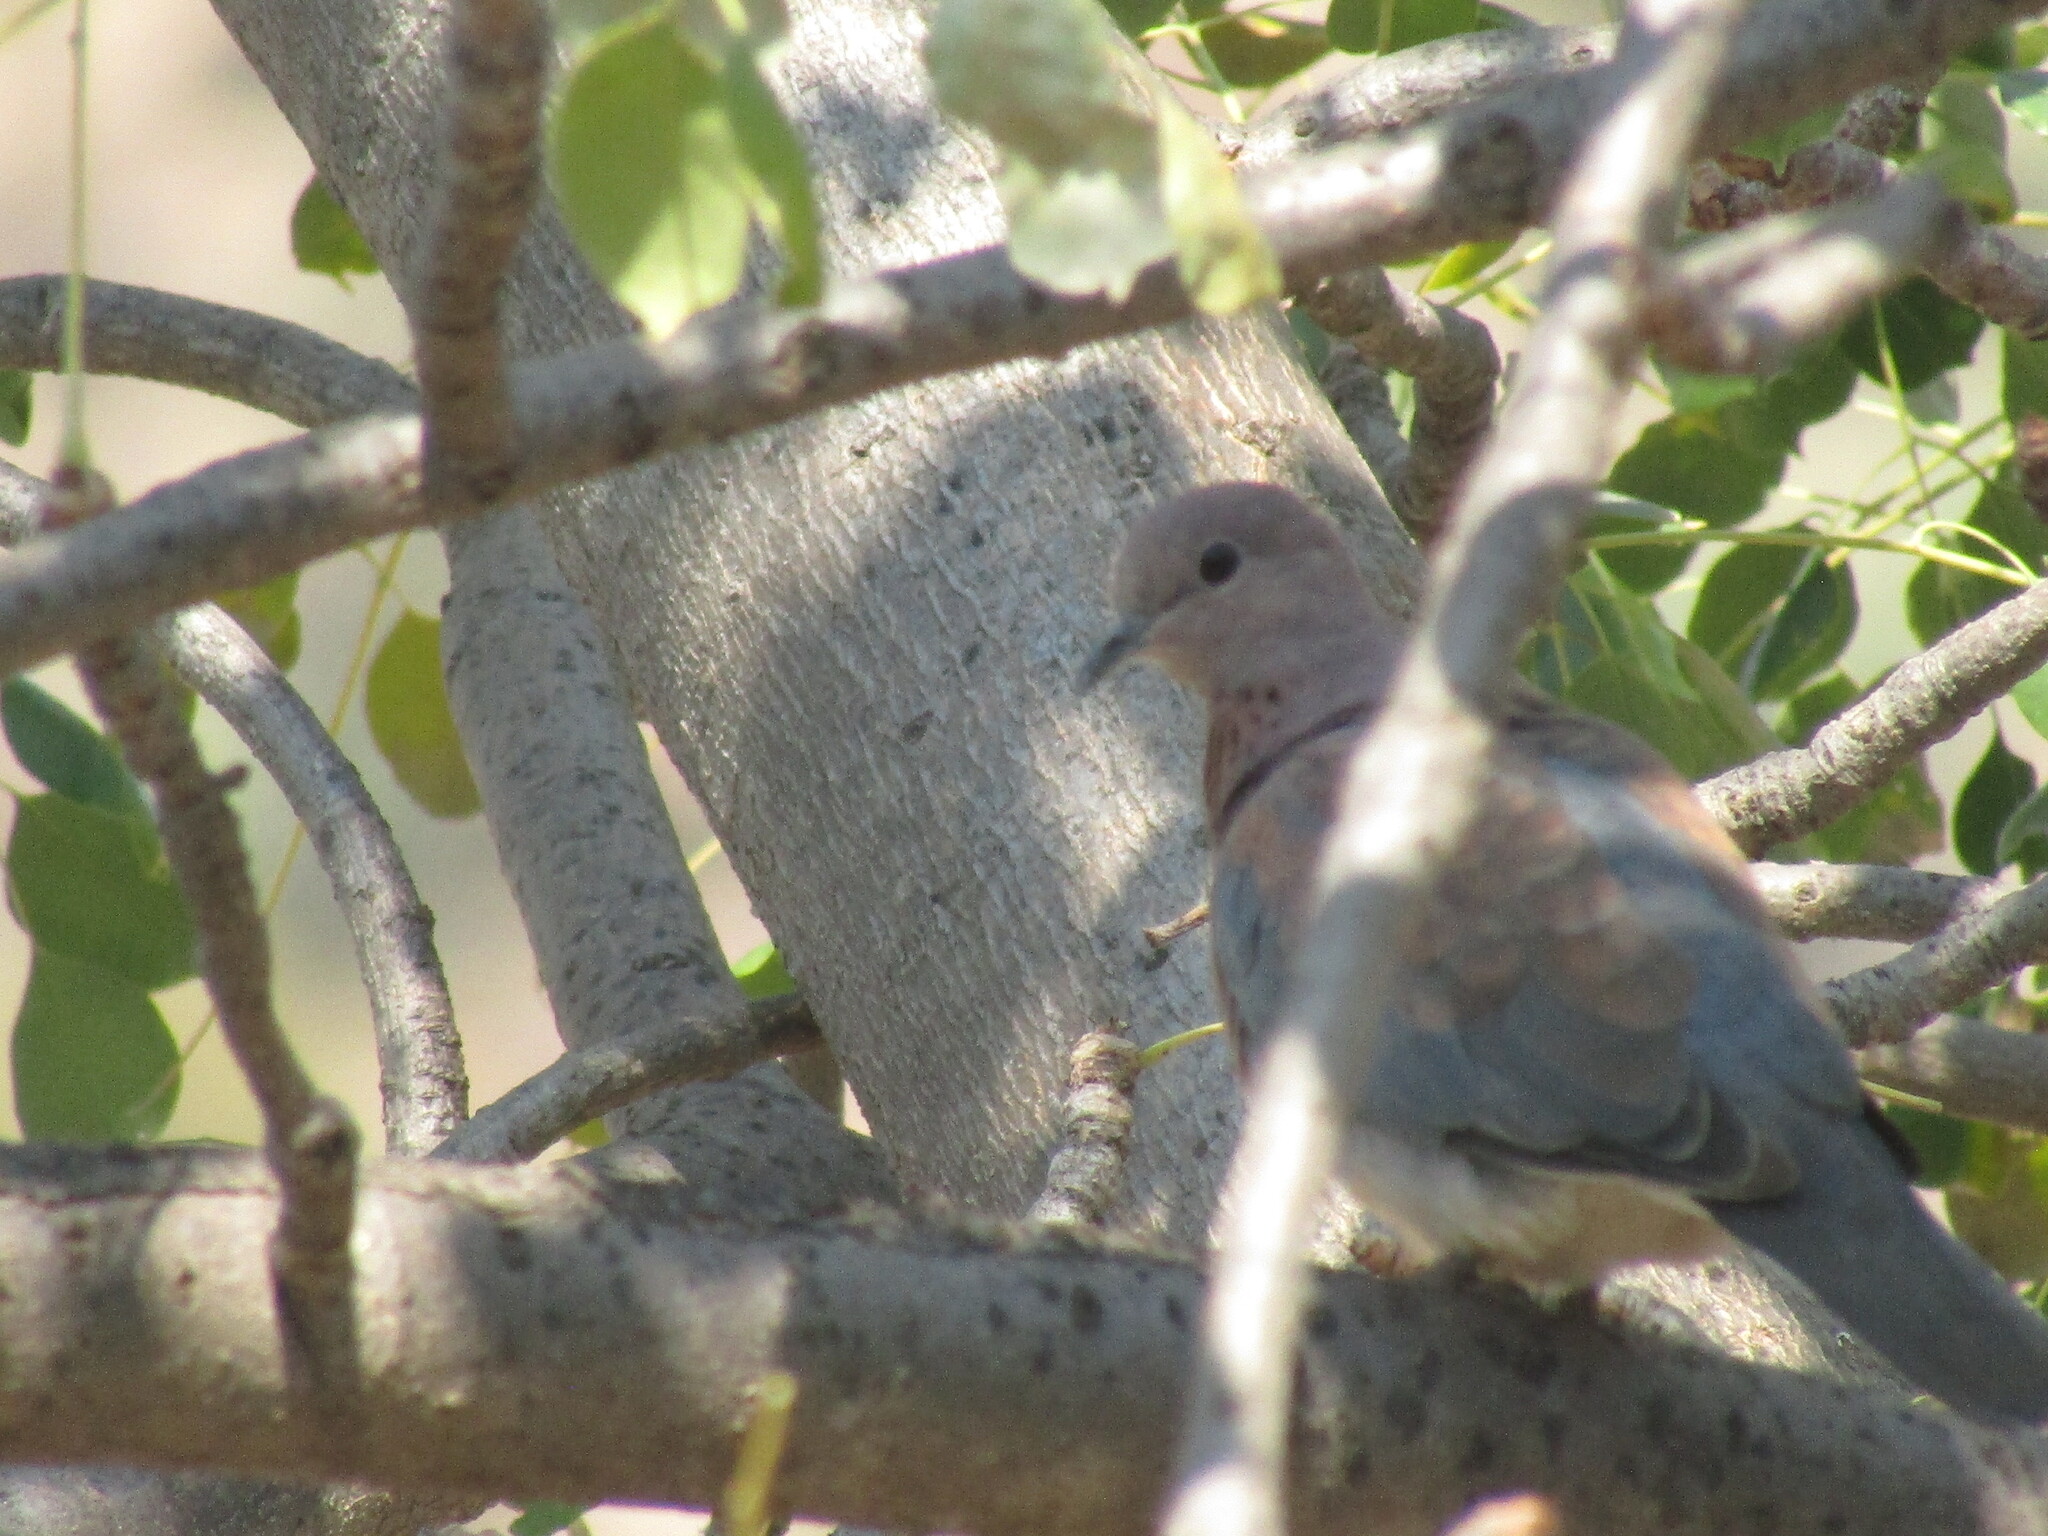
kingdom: Animalia
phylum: Chordata
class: Aves
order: Columbiformes
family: Columbidae
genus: Spilopelia
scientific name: Spilopelia senegalensis
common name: Laughing dove
